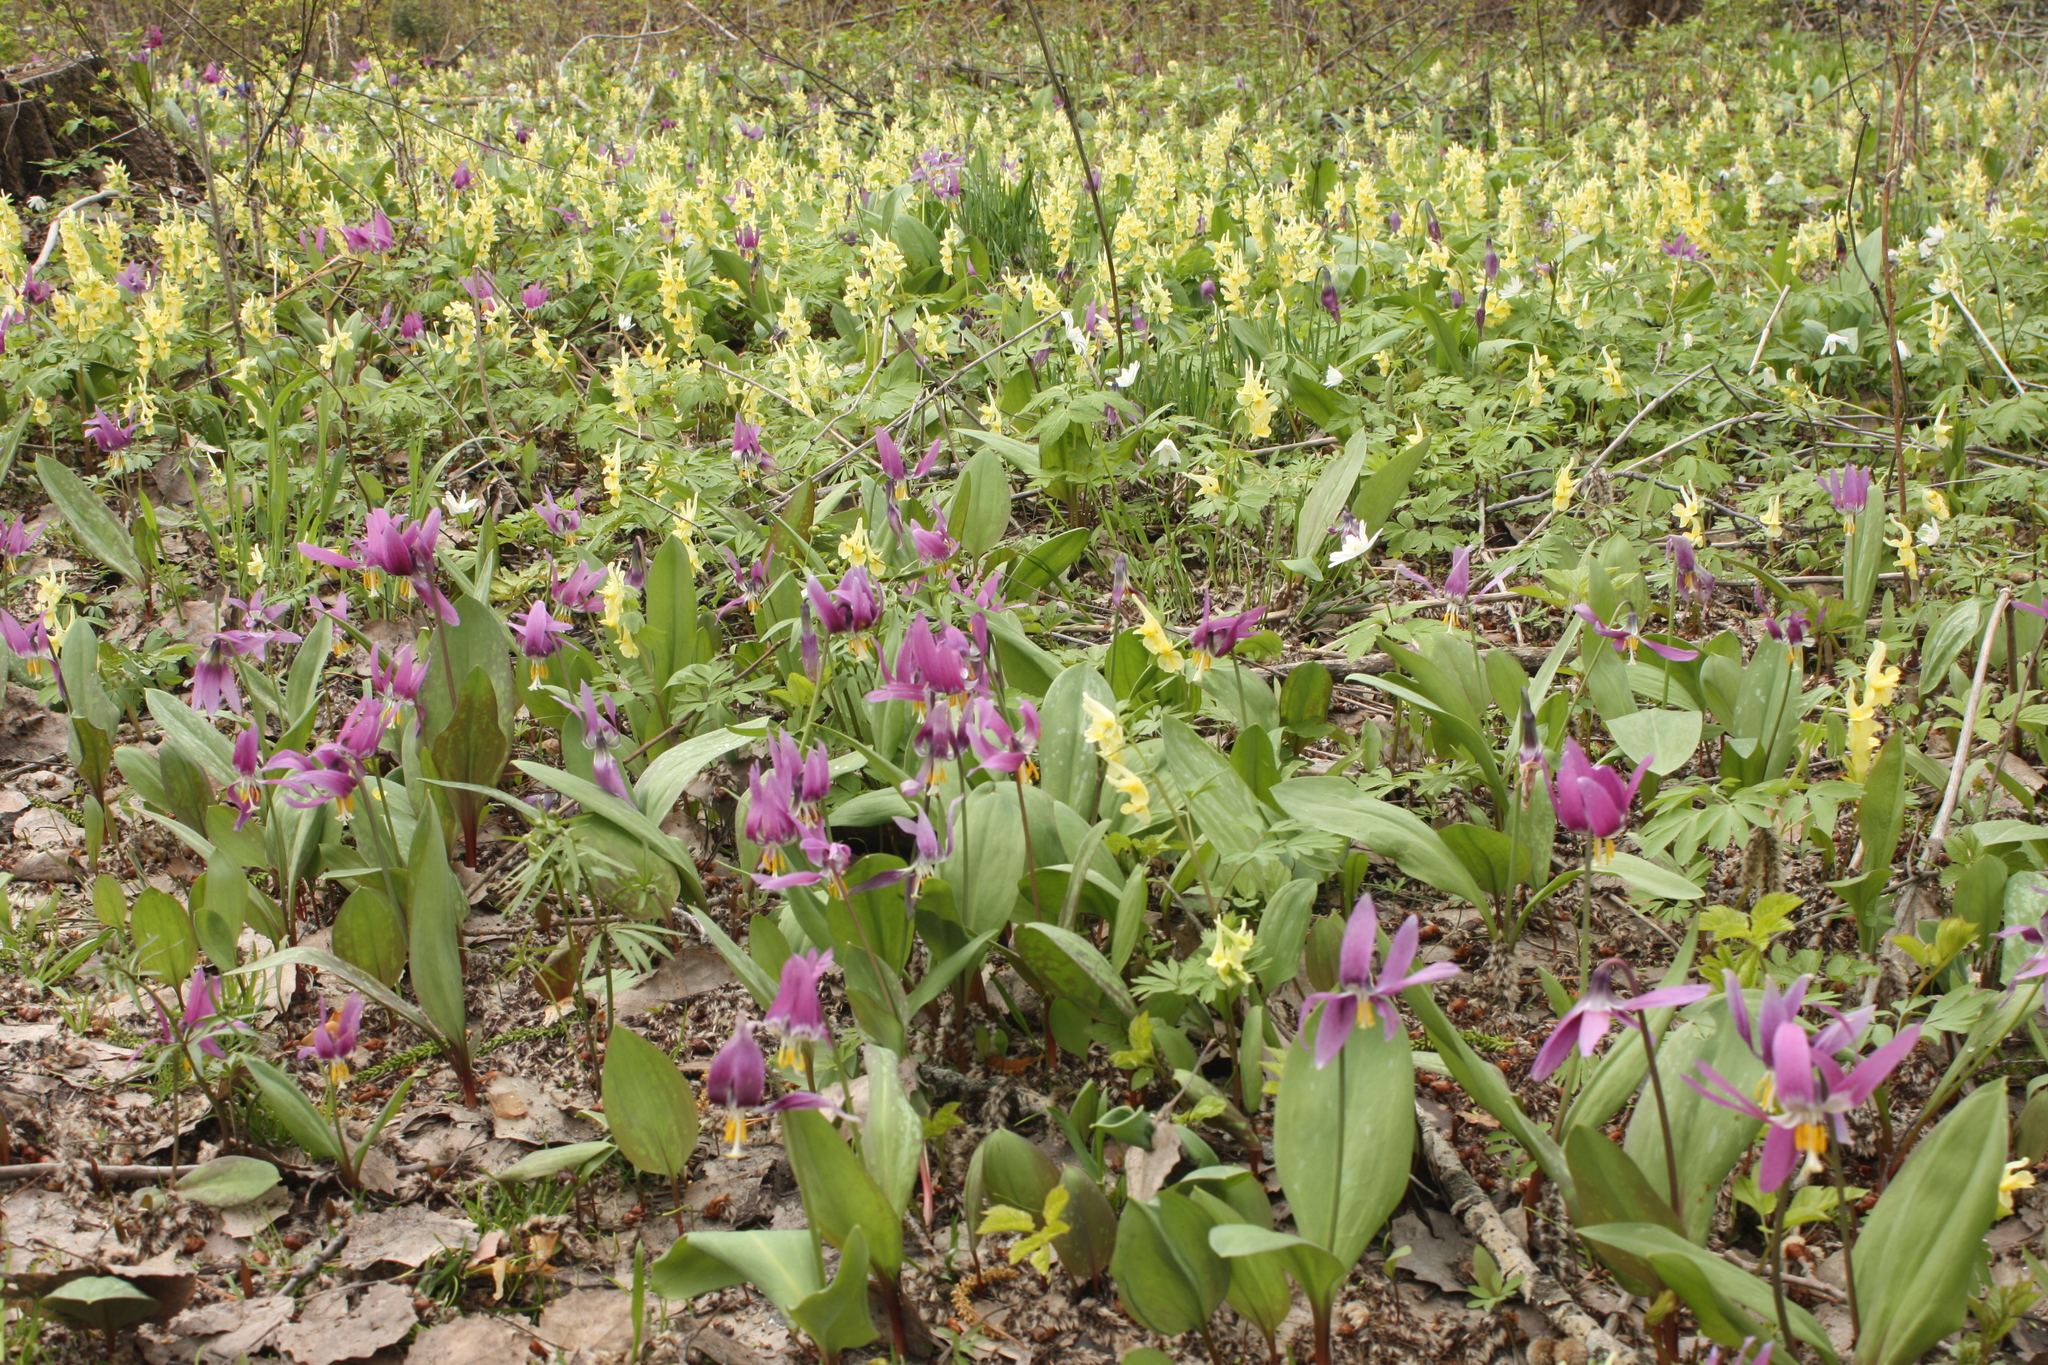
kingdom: Plantae
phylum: Tracheophyta
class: Liliopsida
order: Liliales
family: Liliaceae
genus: Erythronium
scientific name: Erythronium sibiricum
